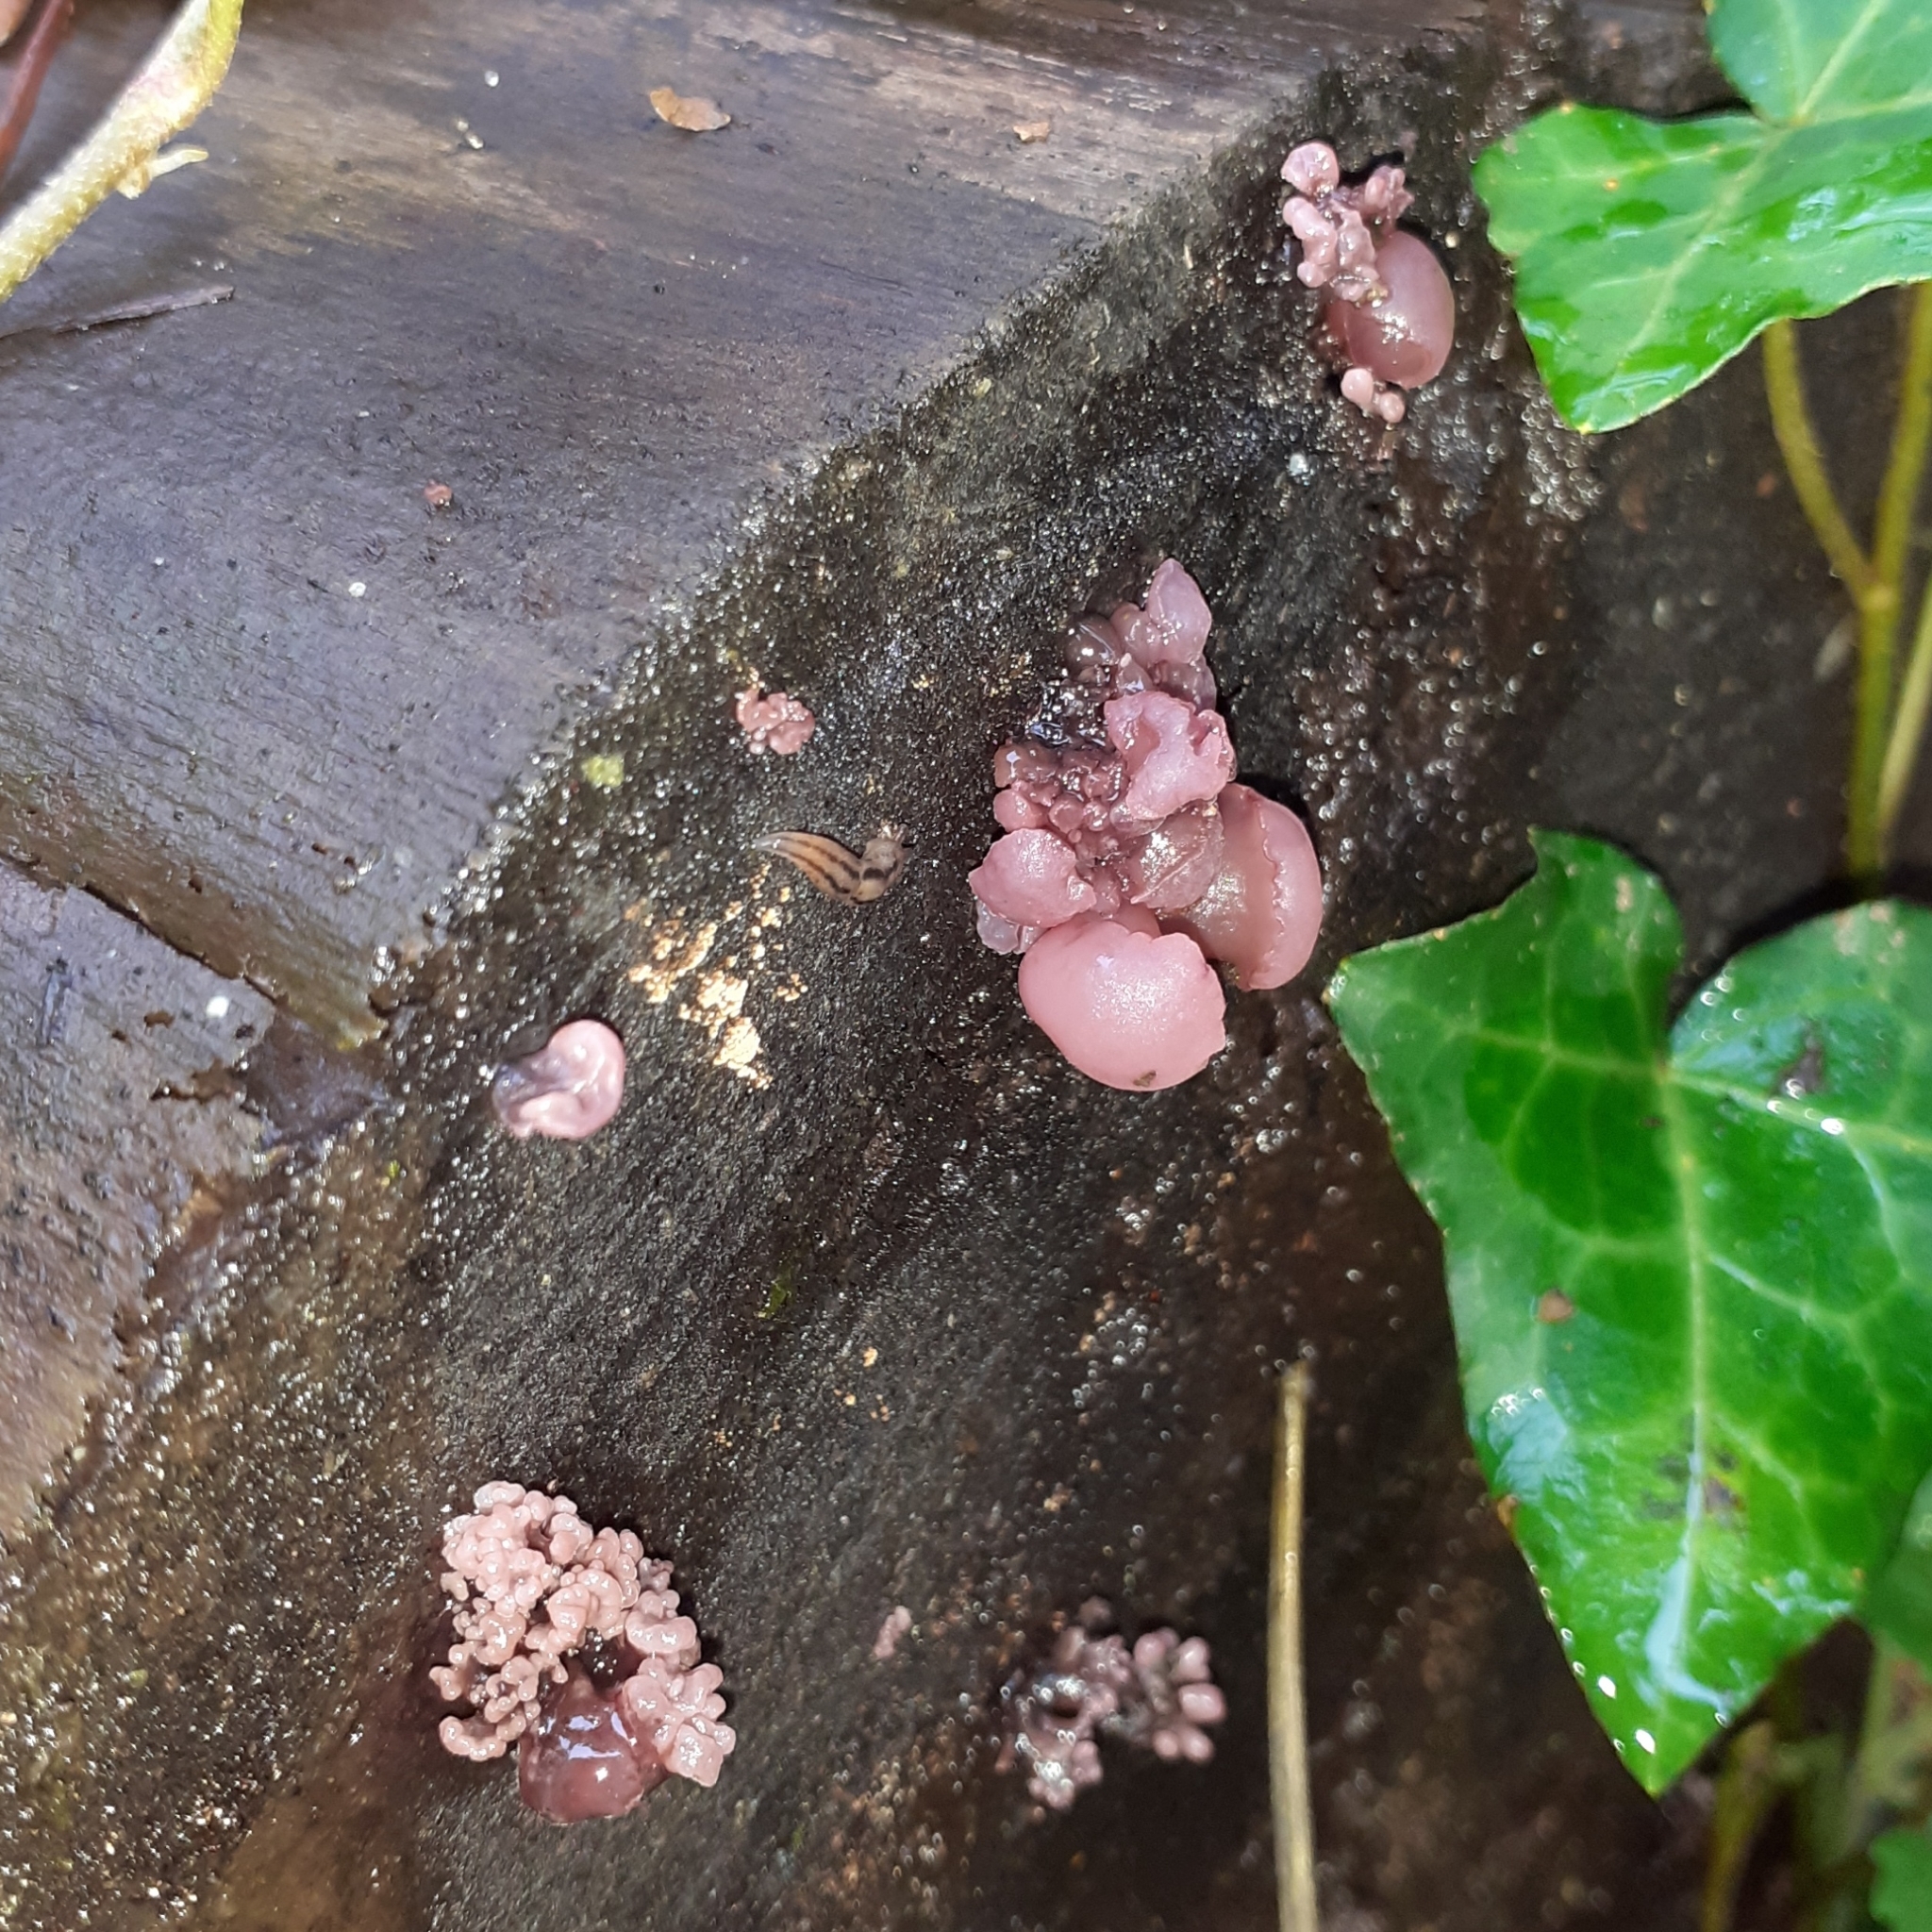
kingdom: Fungi
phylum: Ascomycota
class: Leotiomycetes
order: Helotiales
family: Gelatinodiscaceae
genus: Ascocoryne
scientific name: Ascocoryne sarcoides
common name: Purple jellydisc
